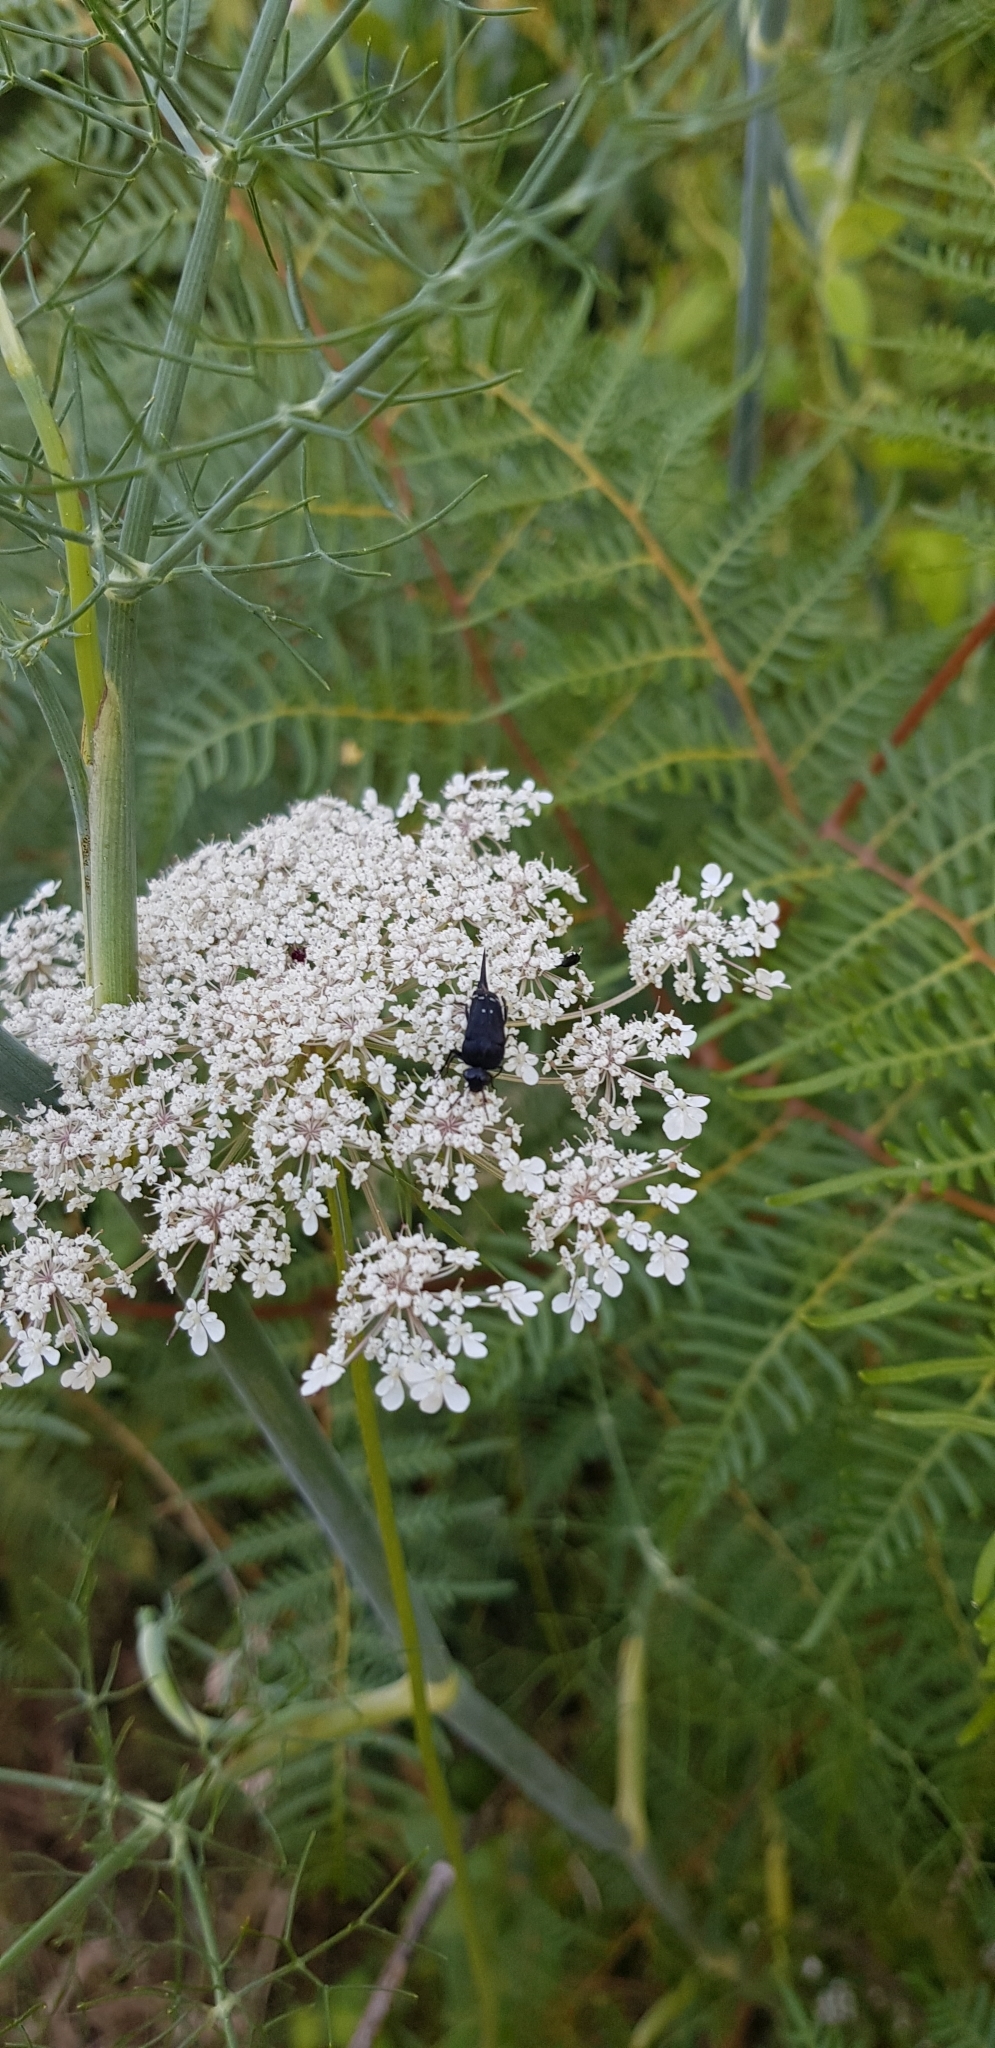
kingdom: Animalia
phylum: Arthropoda
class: Insecta
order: Coleoptera
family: Mordellidae
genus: Hoshihananomia
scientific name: Hoshihananomia
